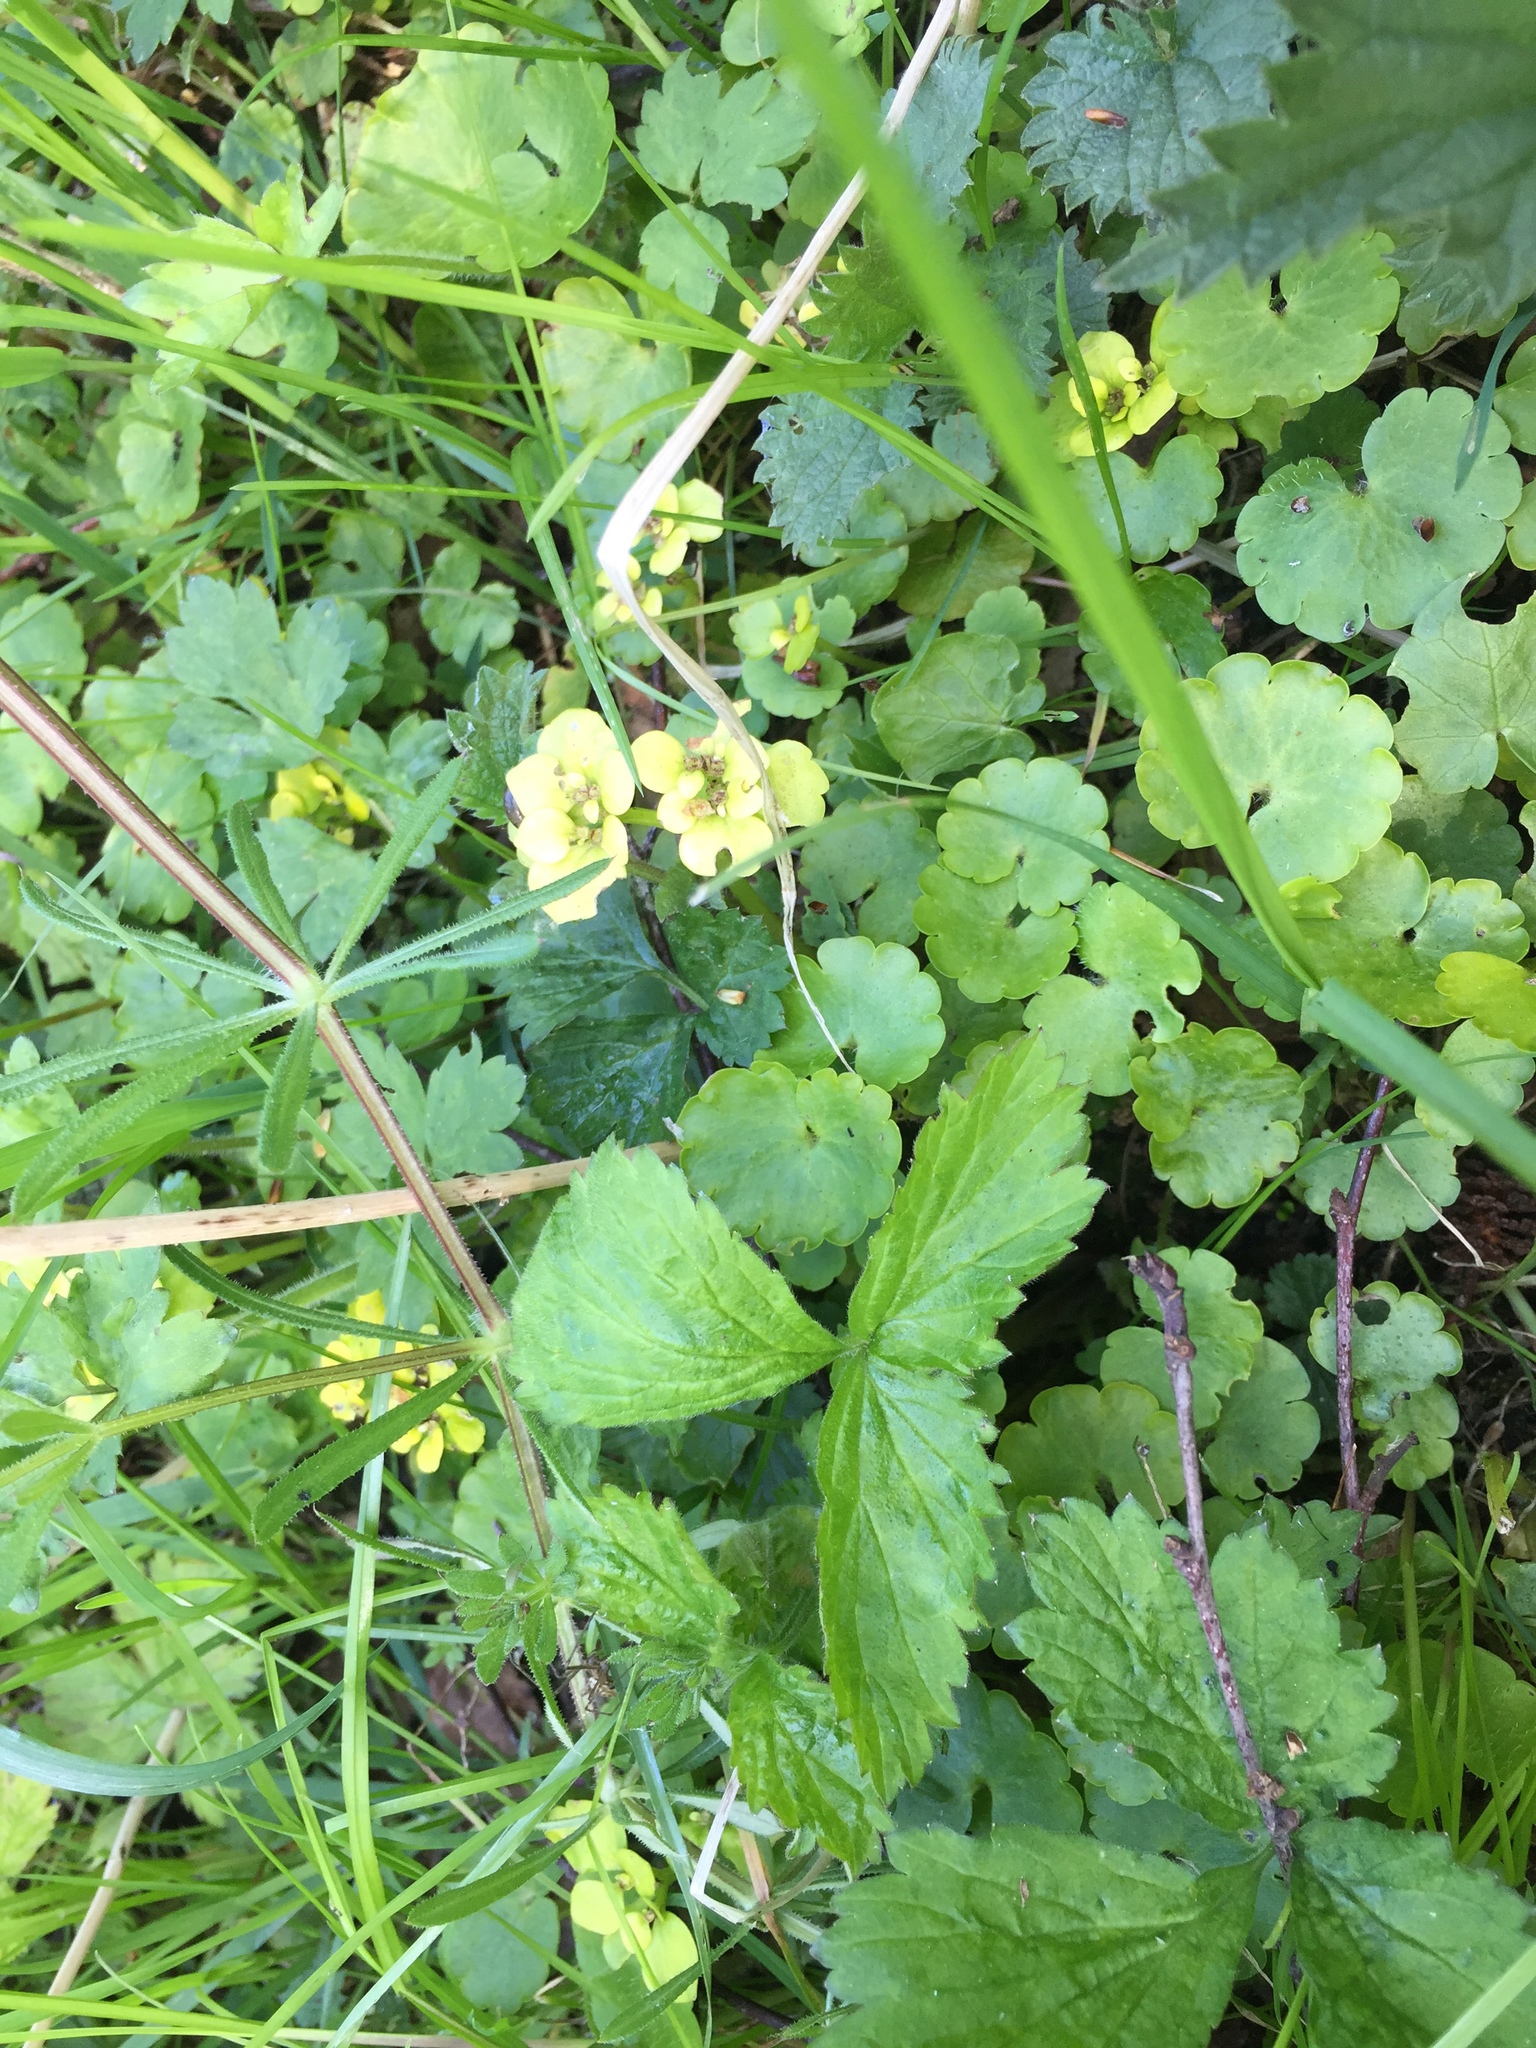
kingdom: Plantae
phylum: Tracheophyta
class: Magnoliopsida
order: Saxifragales
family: Saxifragaceae
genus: Chrysosplenium
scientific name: Chrysosplenium alternifolium
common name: Alternate-leaved golden-saxifrage
